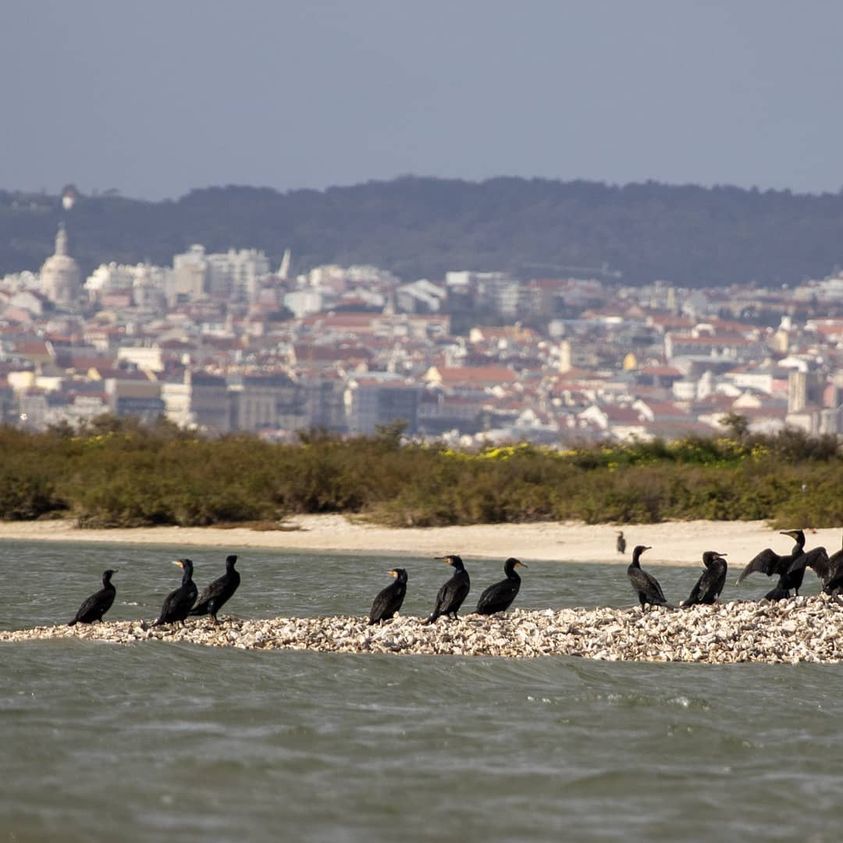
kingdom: Animalia
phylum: Chordata
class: Aves
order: Suliformes
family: Phalacrocoracidae
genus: Phalacrocorax
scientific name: Phalacrocorax carbo
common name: Great cormorant
